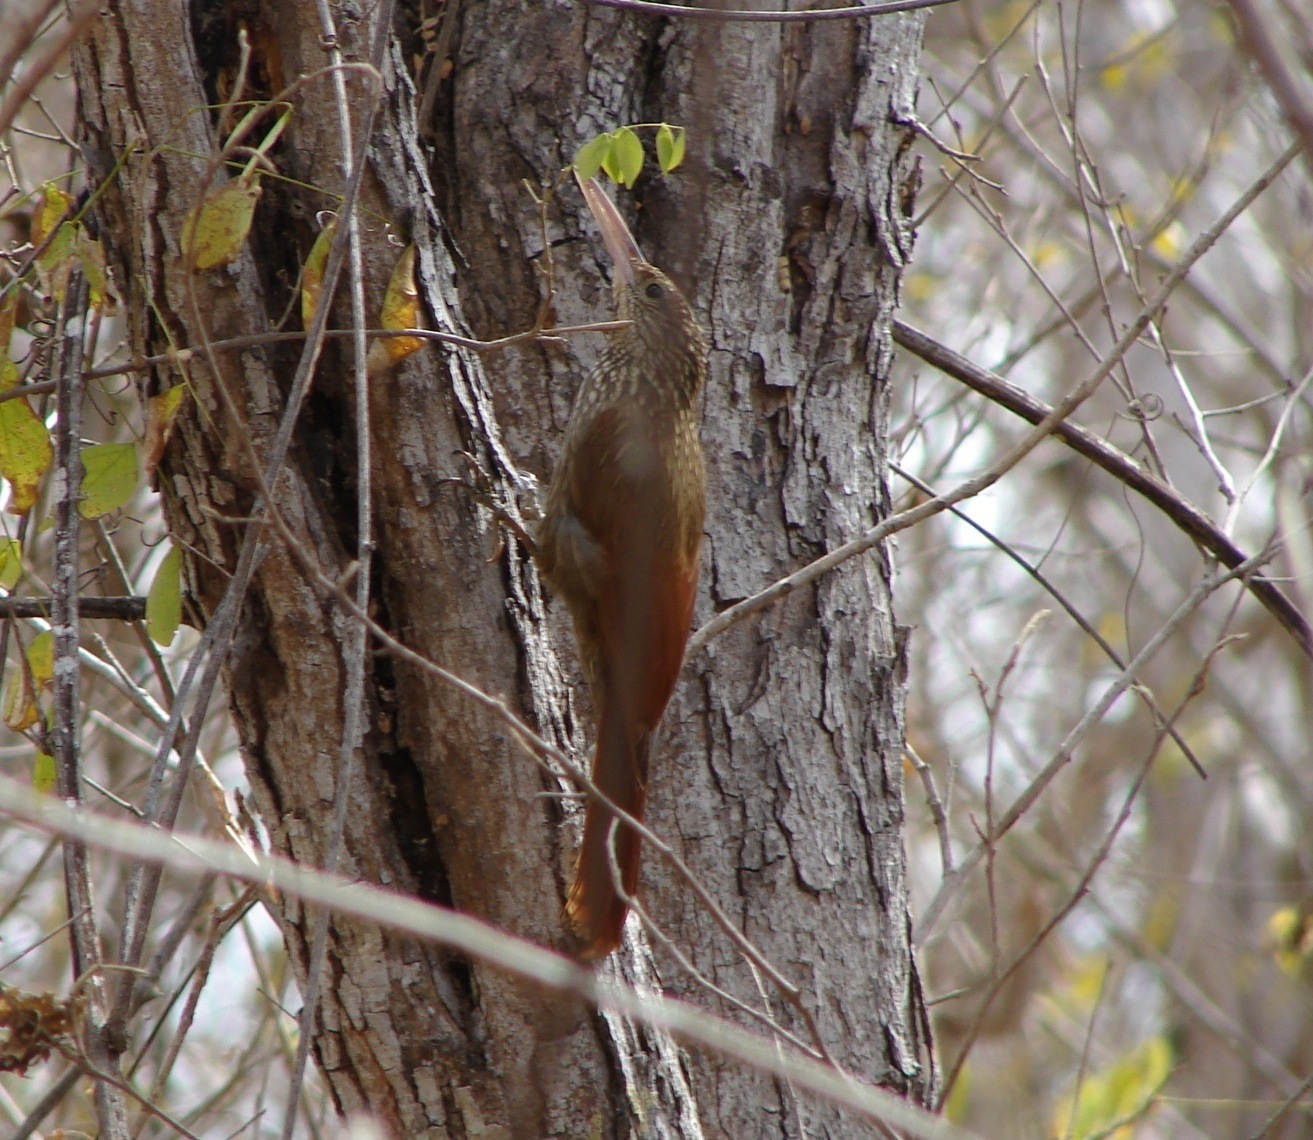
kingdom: Animalia
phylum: Chordata
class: Aves
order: Passeriformes
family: Furnariidae
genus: Xiphorhynchus
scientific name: Xiphorhynchus flavigaster
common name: Ivory-billed woodcreeper
